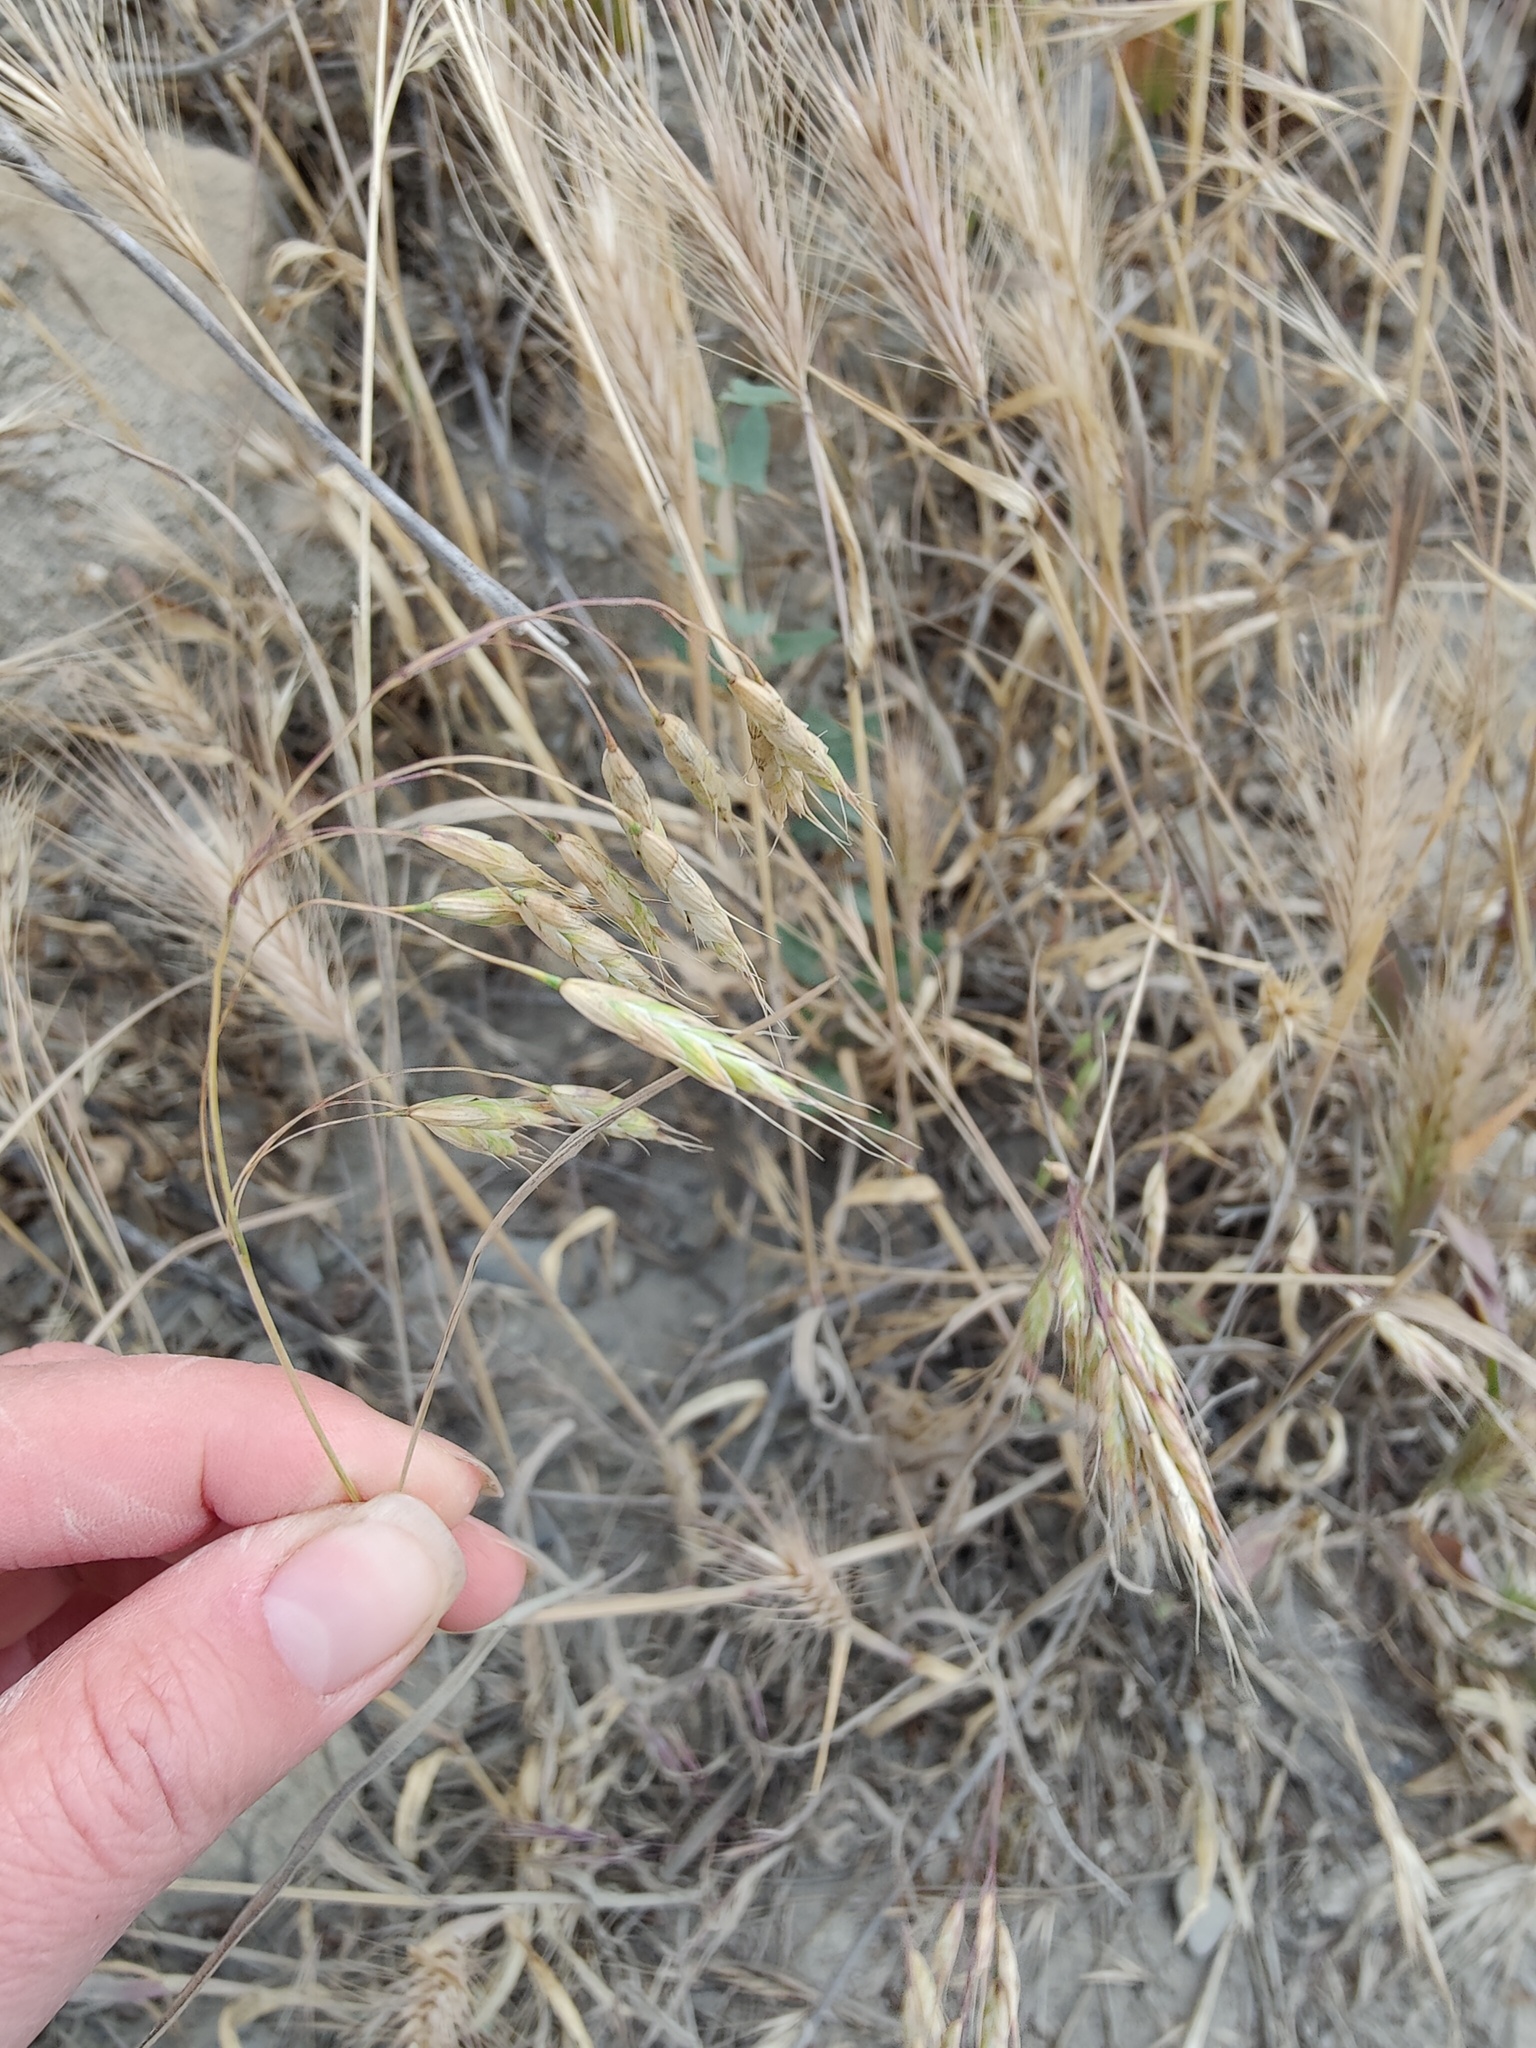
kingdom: Plantae
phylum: Tracheophyta
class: Liliopsida
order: Poales
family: Poaceae
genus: Bromus
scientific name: Bromus squarrosus
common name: Corn brome
